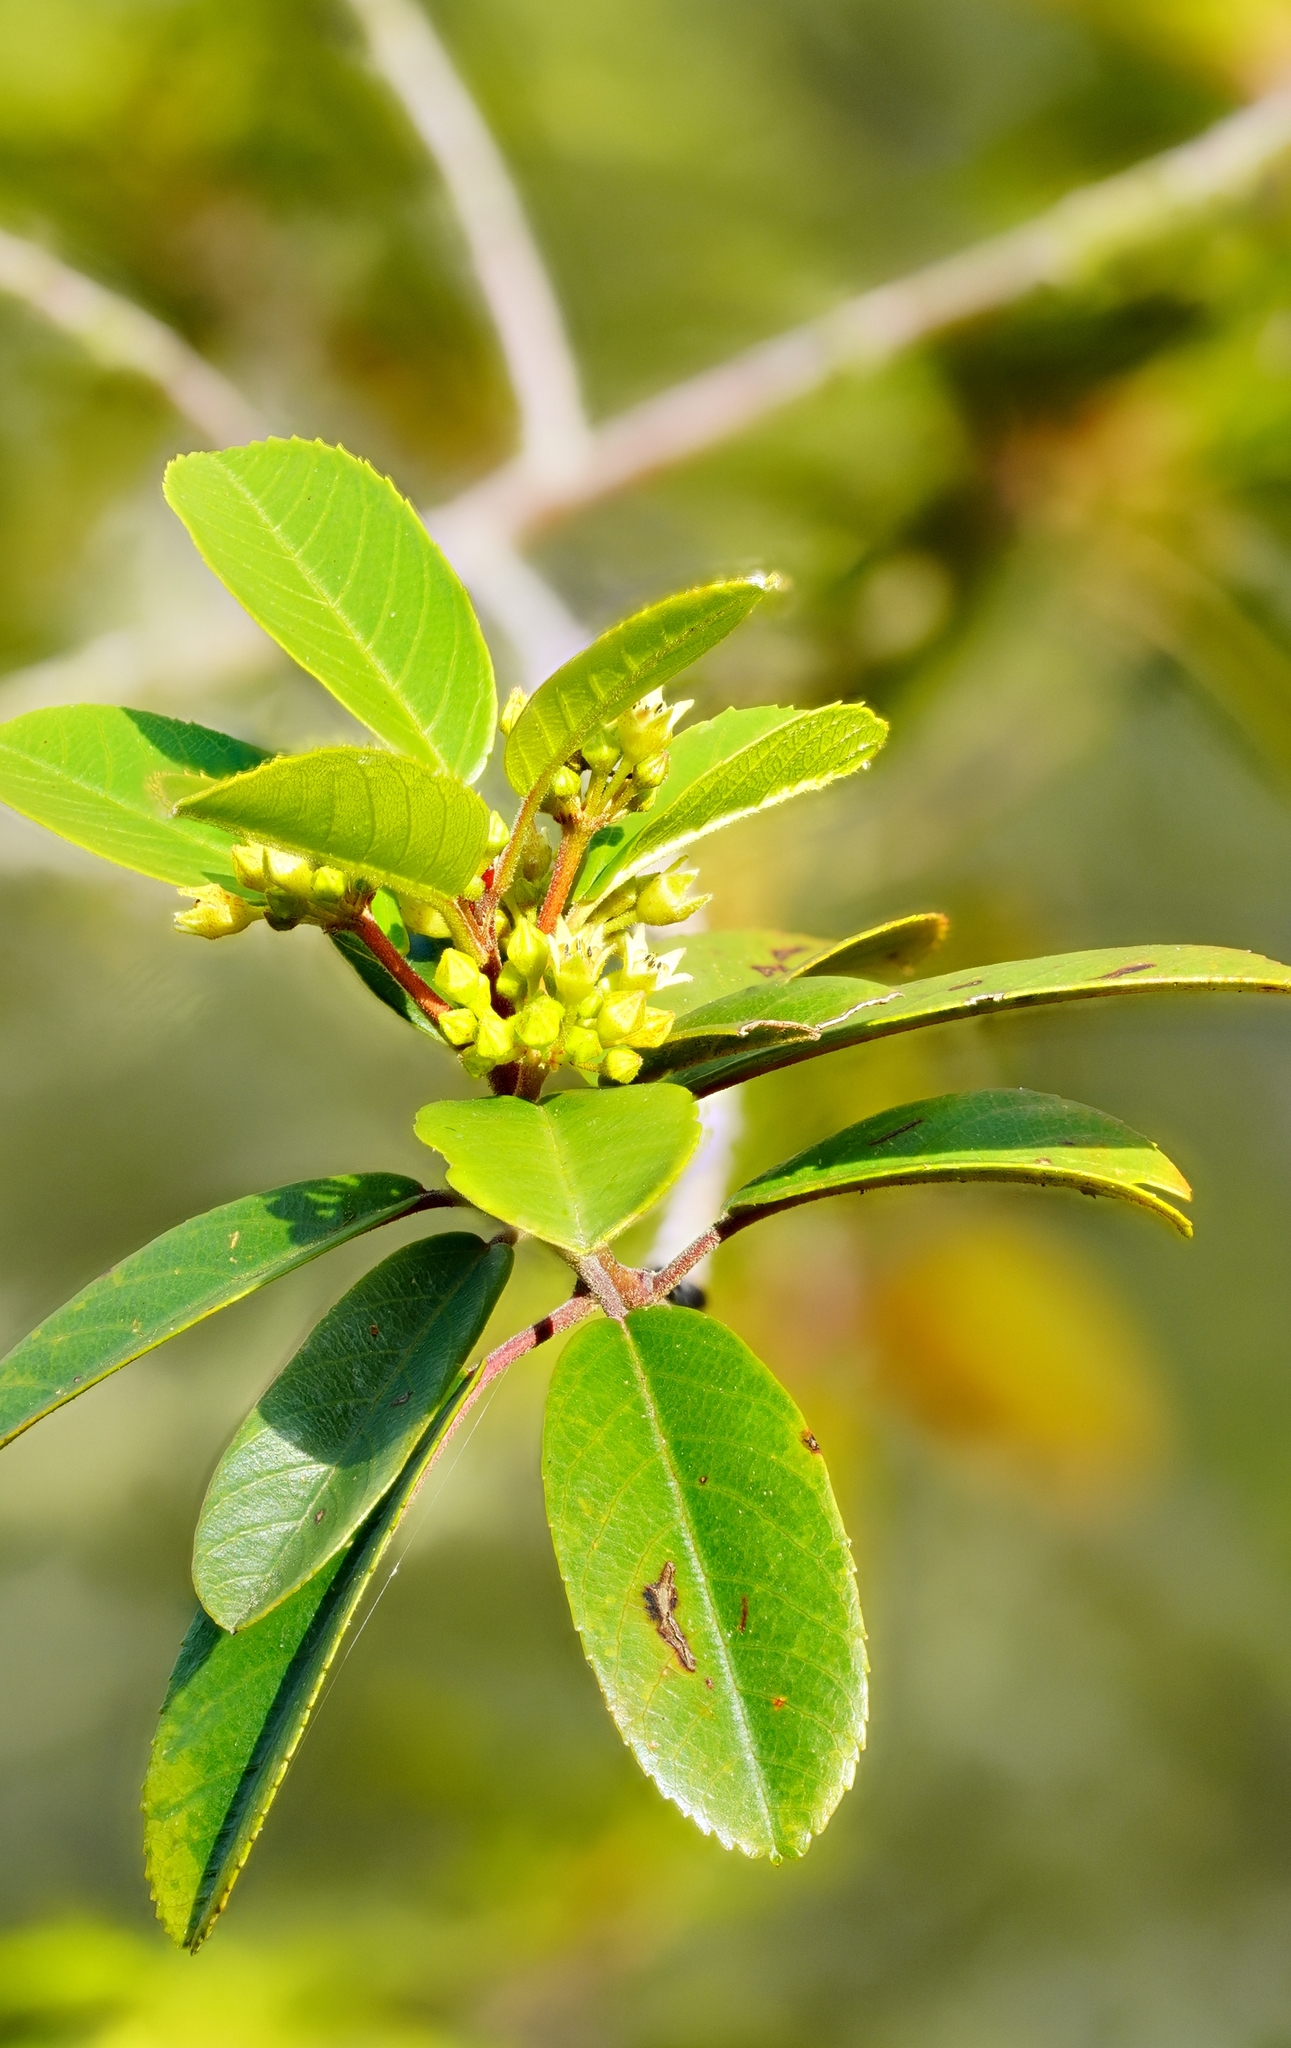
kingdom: Plantae
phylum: Tracheophyta
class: Magnoliopsida
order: Rosales
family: Rhamnaceae
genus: Frangula
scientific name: Frangula californica
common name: California buckthorn
